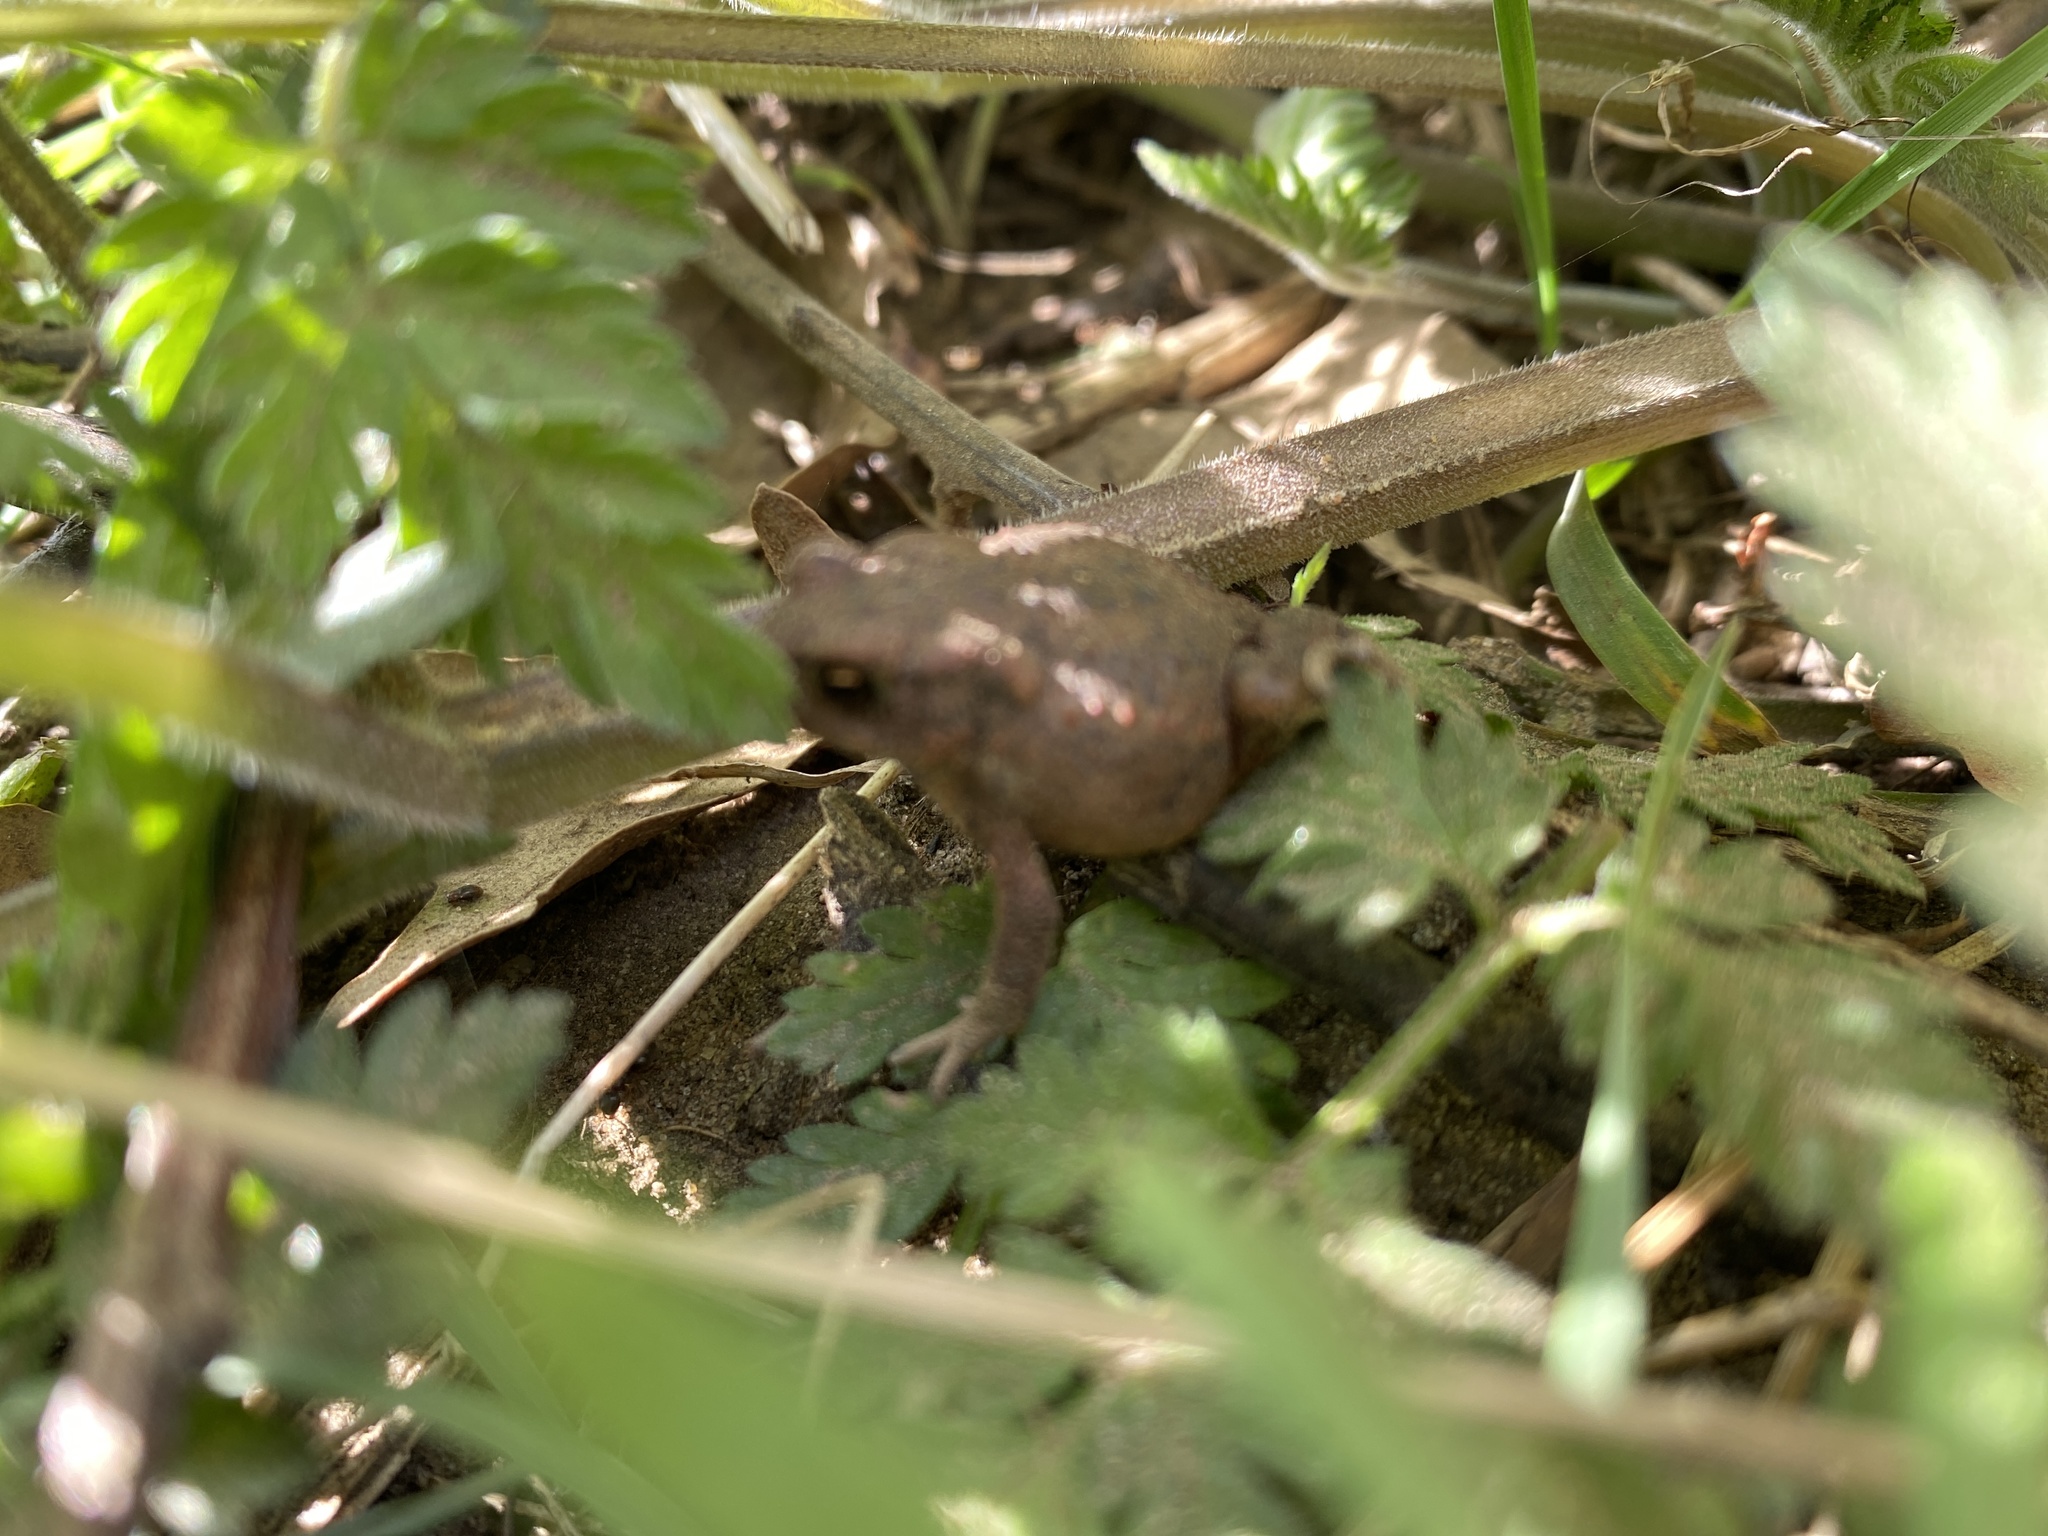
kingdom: Animalia
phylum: Chordata
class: Amphibia
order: Anura
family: Bufonidae
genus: Bufo
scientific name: Bufo bufo
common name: Common toad
